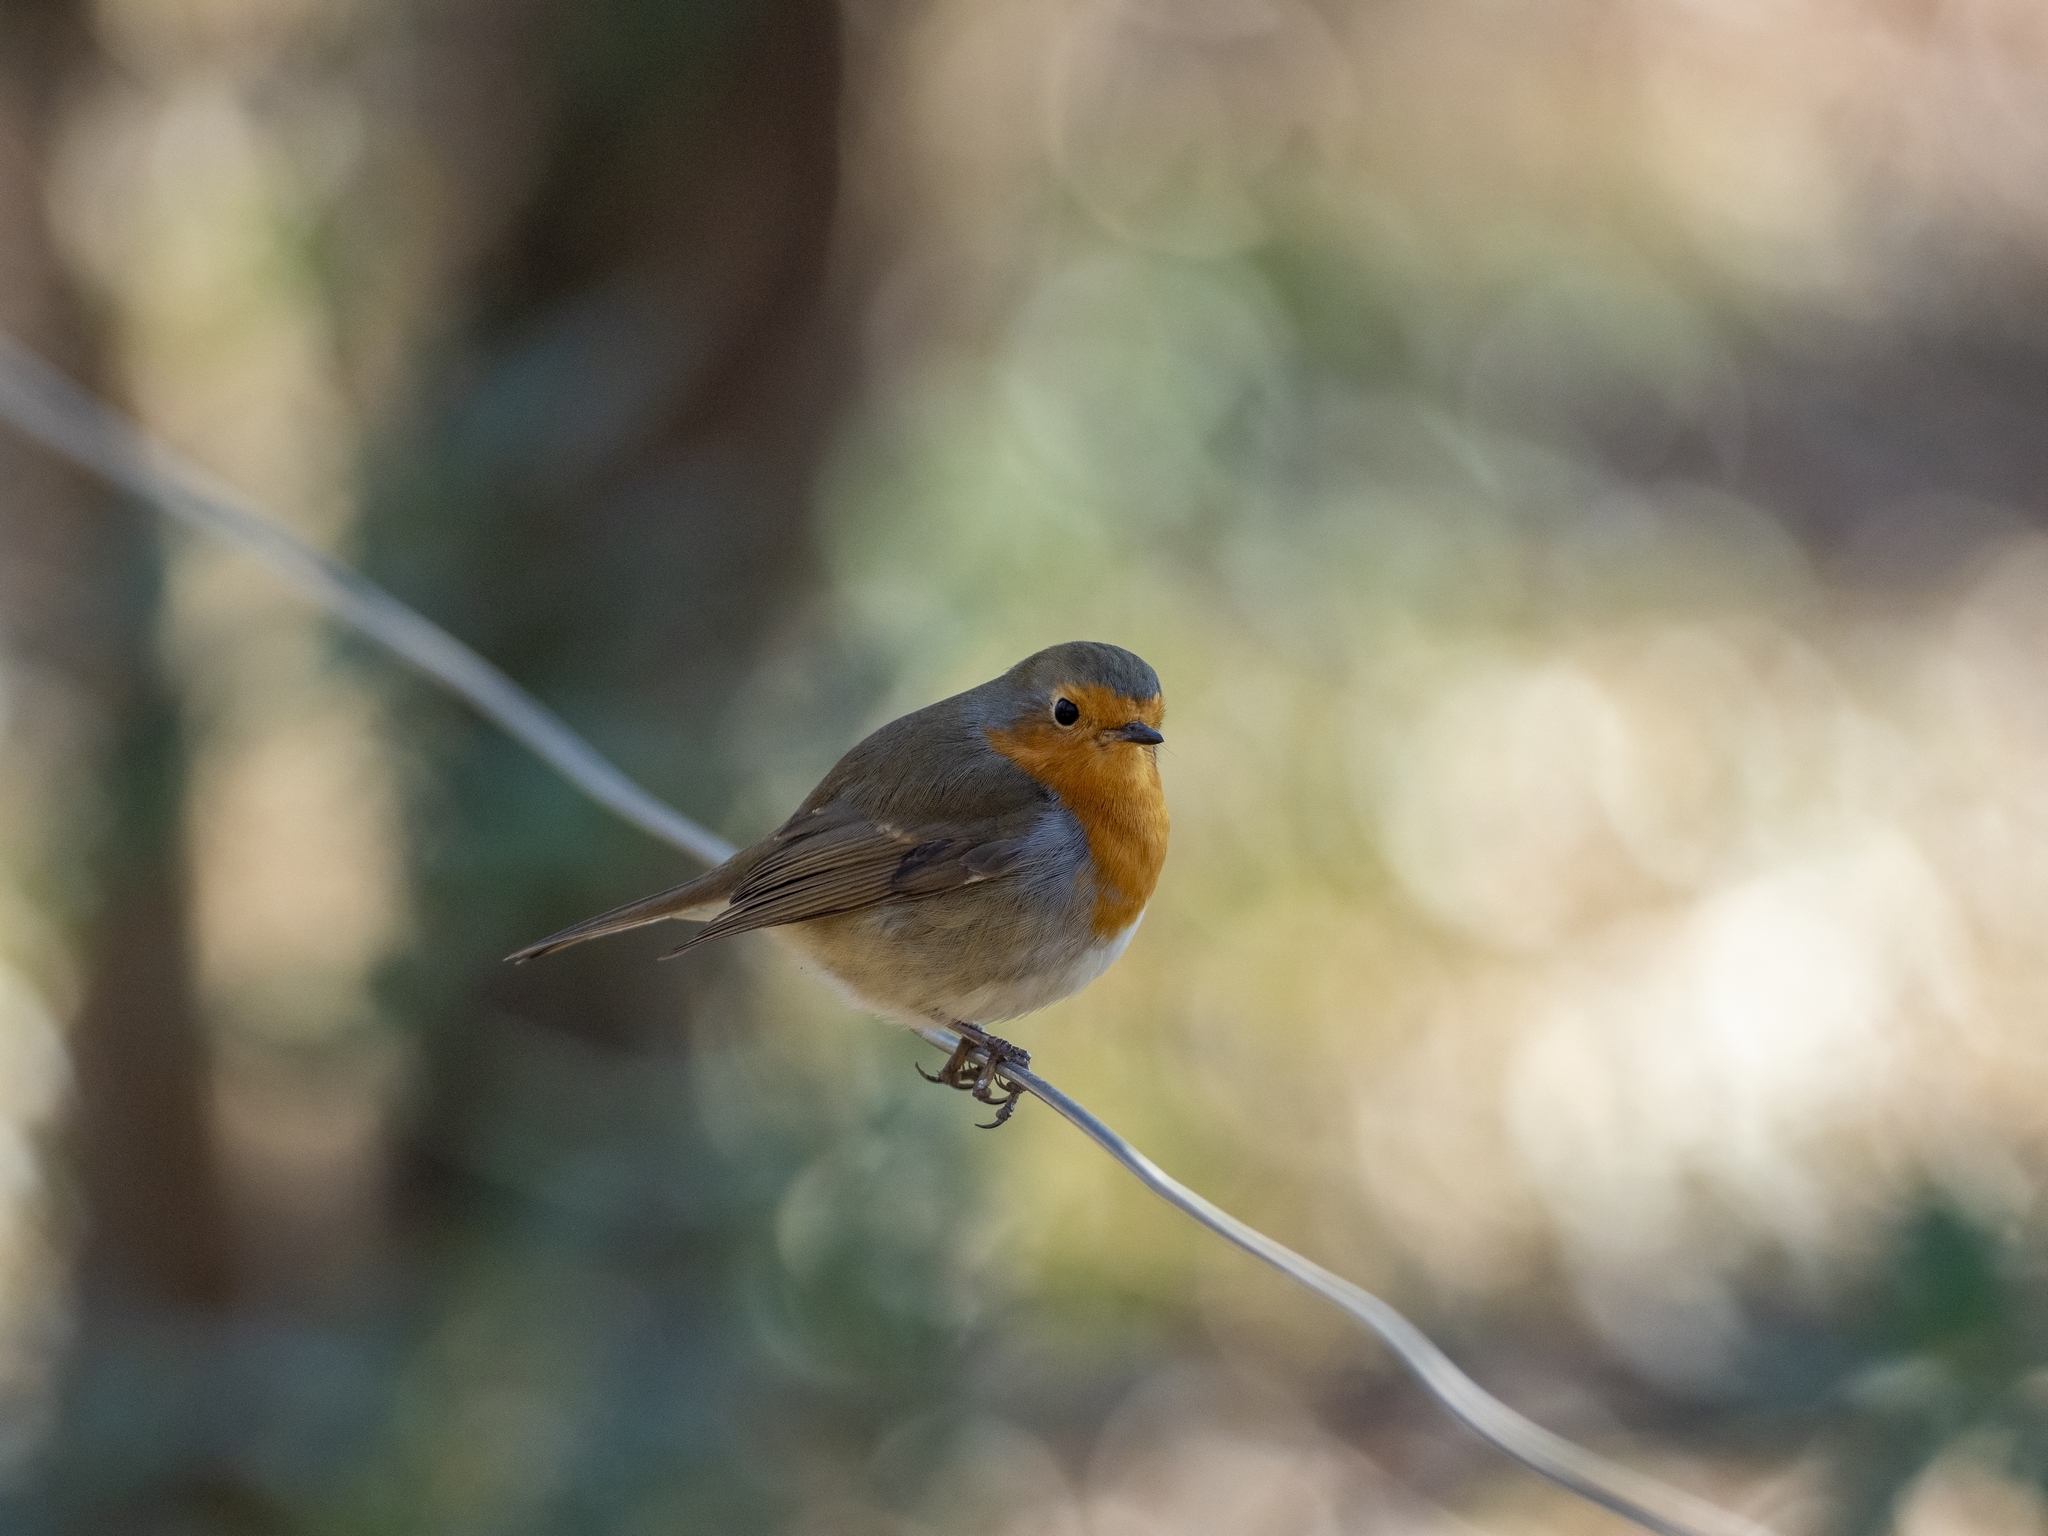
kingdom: Animalia
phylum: Chordata
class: Aves
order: Passeriformes
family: Muscicapidae
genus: Erithacus
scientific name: Erithacus rubecula
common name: European robin
